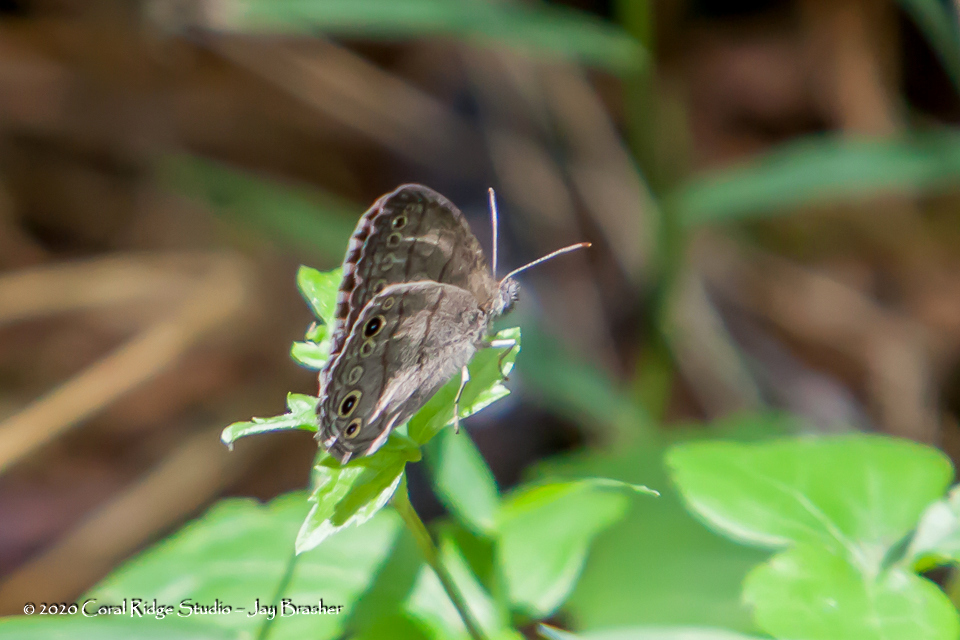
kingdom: Animalia
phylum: Arthropoda
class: Insecta
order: Lepidoptera
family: Nymphalidae
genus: Hermeuptychia
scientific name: Hermeuptychia hermes
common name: Hermes satyr
